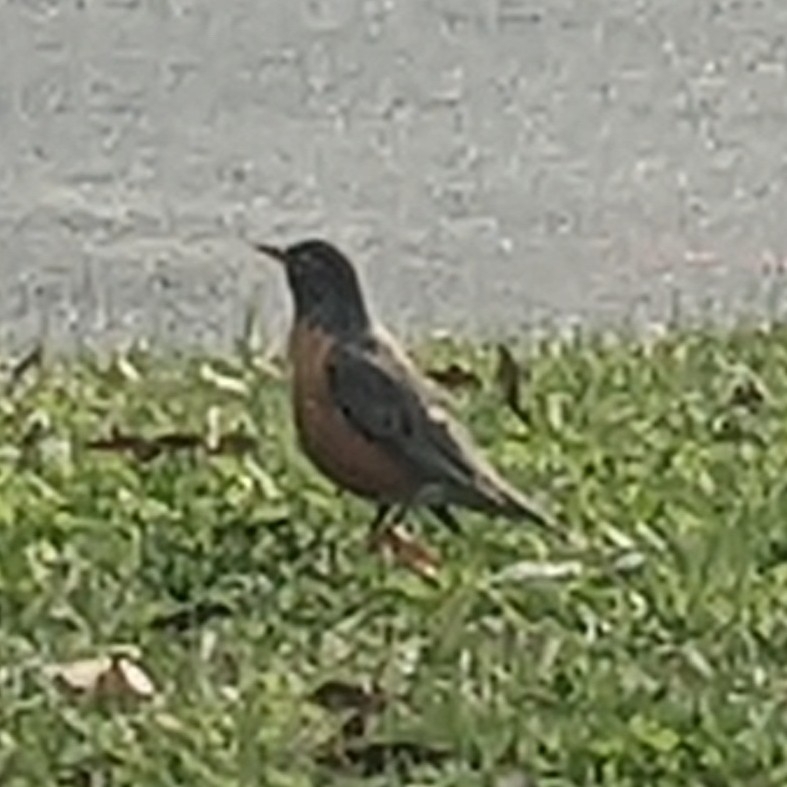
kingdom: Animalia
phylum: Chordata
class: Aves
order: Passeriformes
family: Turdidae
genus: Turdus
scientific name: Turdus migratorius
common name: American robin
